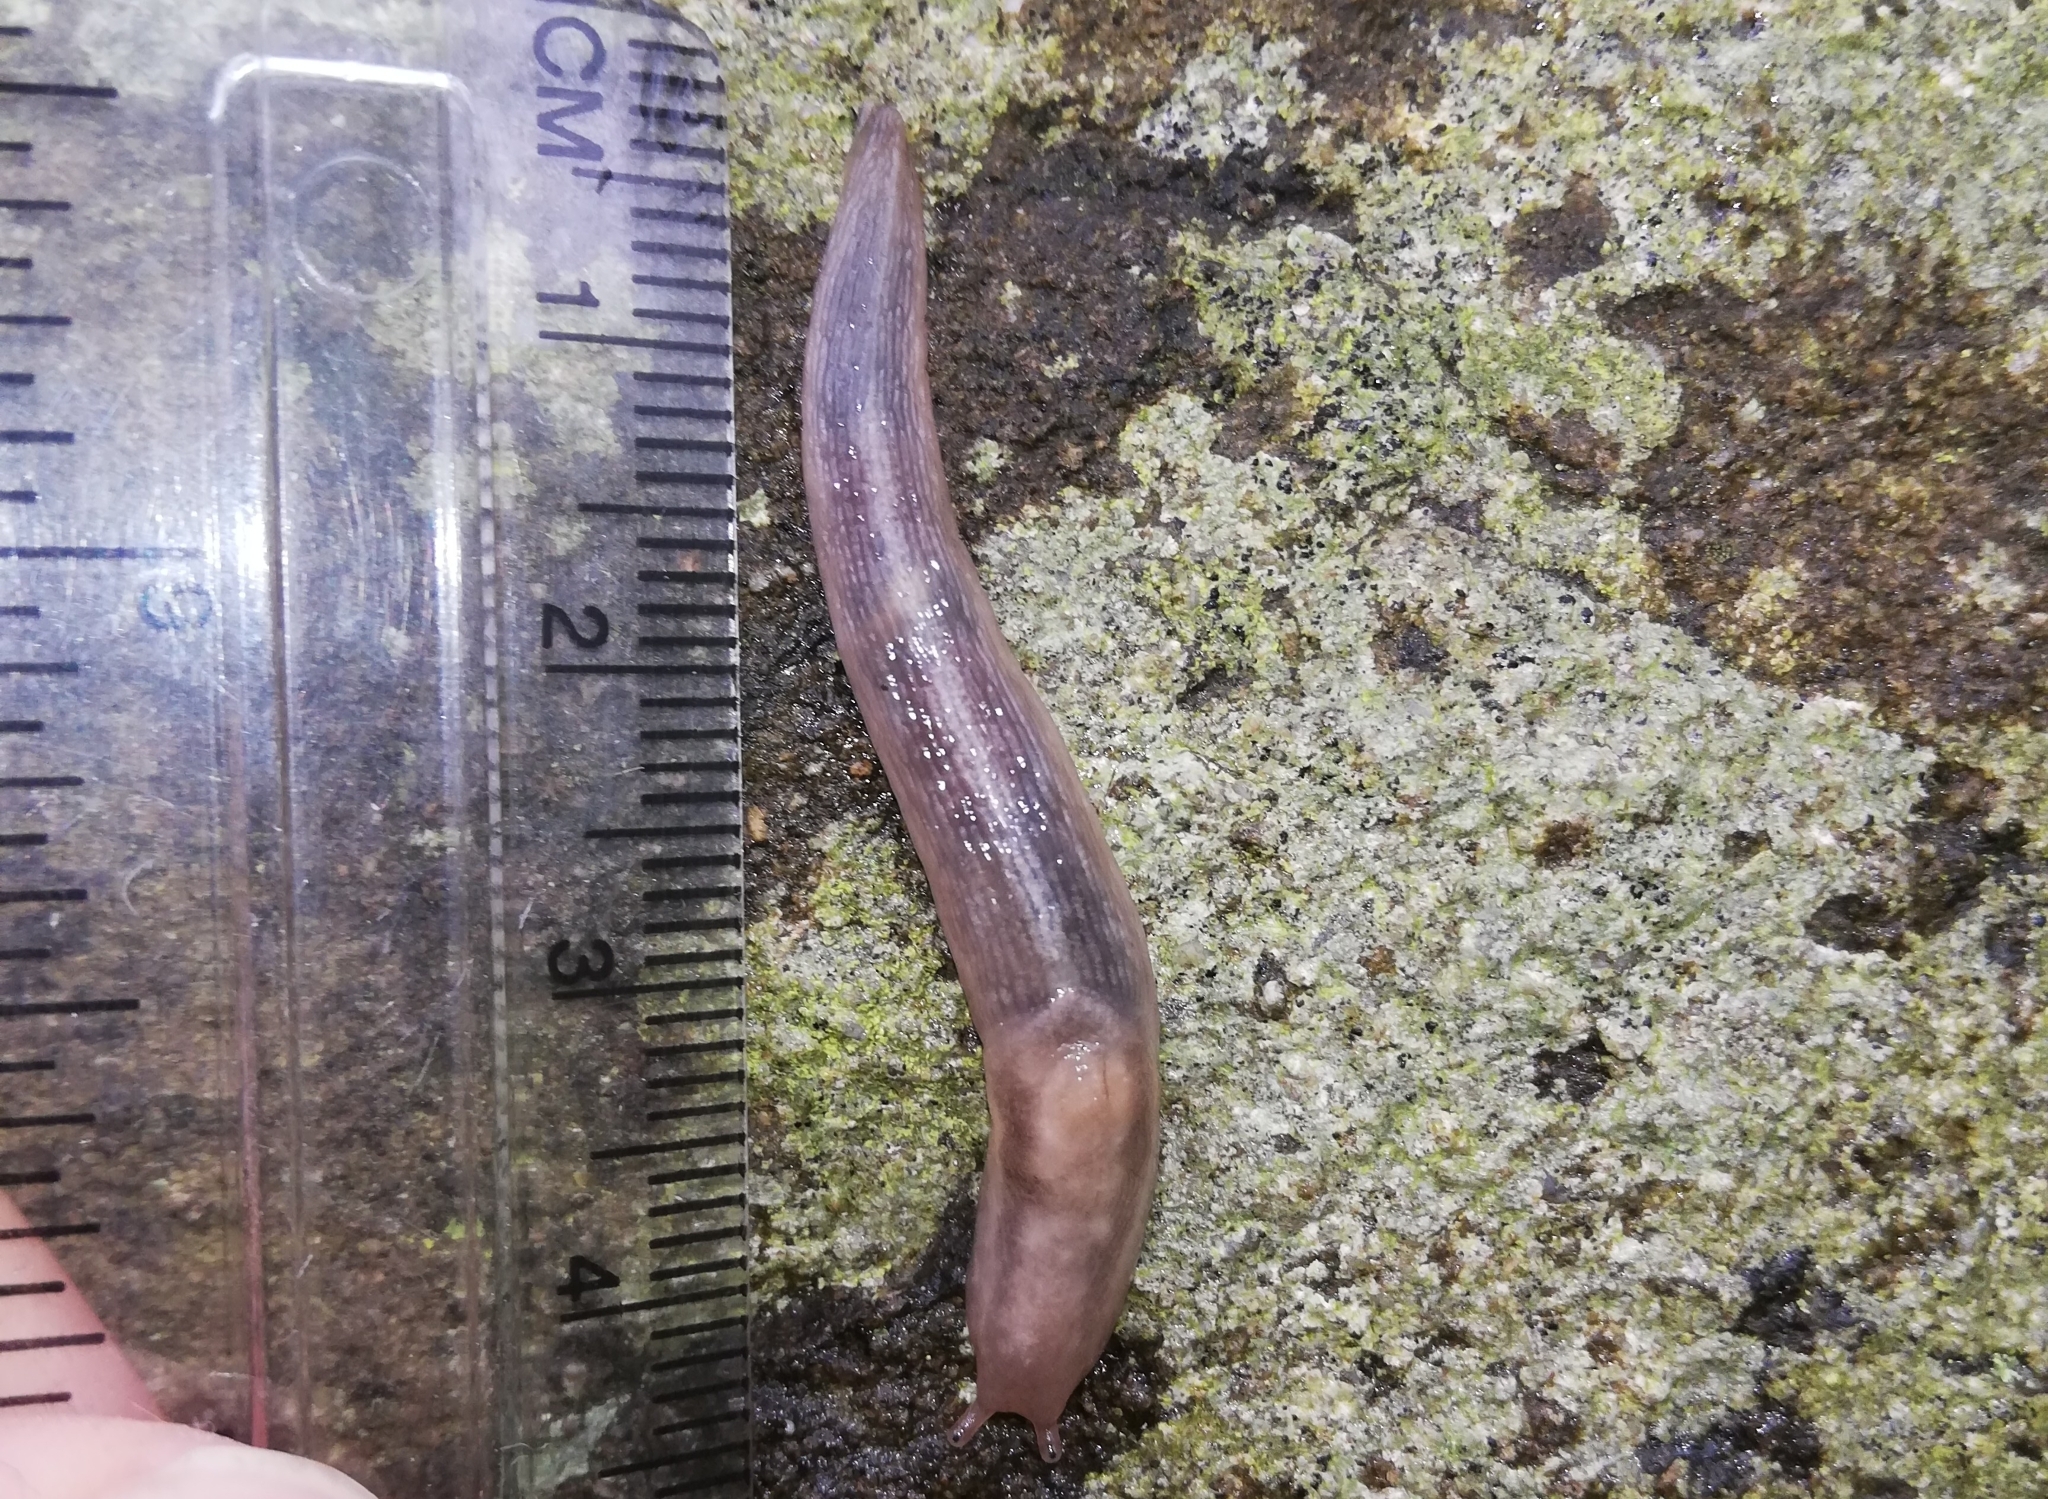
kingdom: Animalia
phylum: Mollusca
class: Gastropoda
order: Stylommatophora
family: Limacidae
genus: Lehmannia
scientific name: Lehmannia marginata
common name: Tree slug
